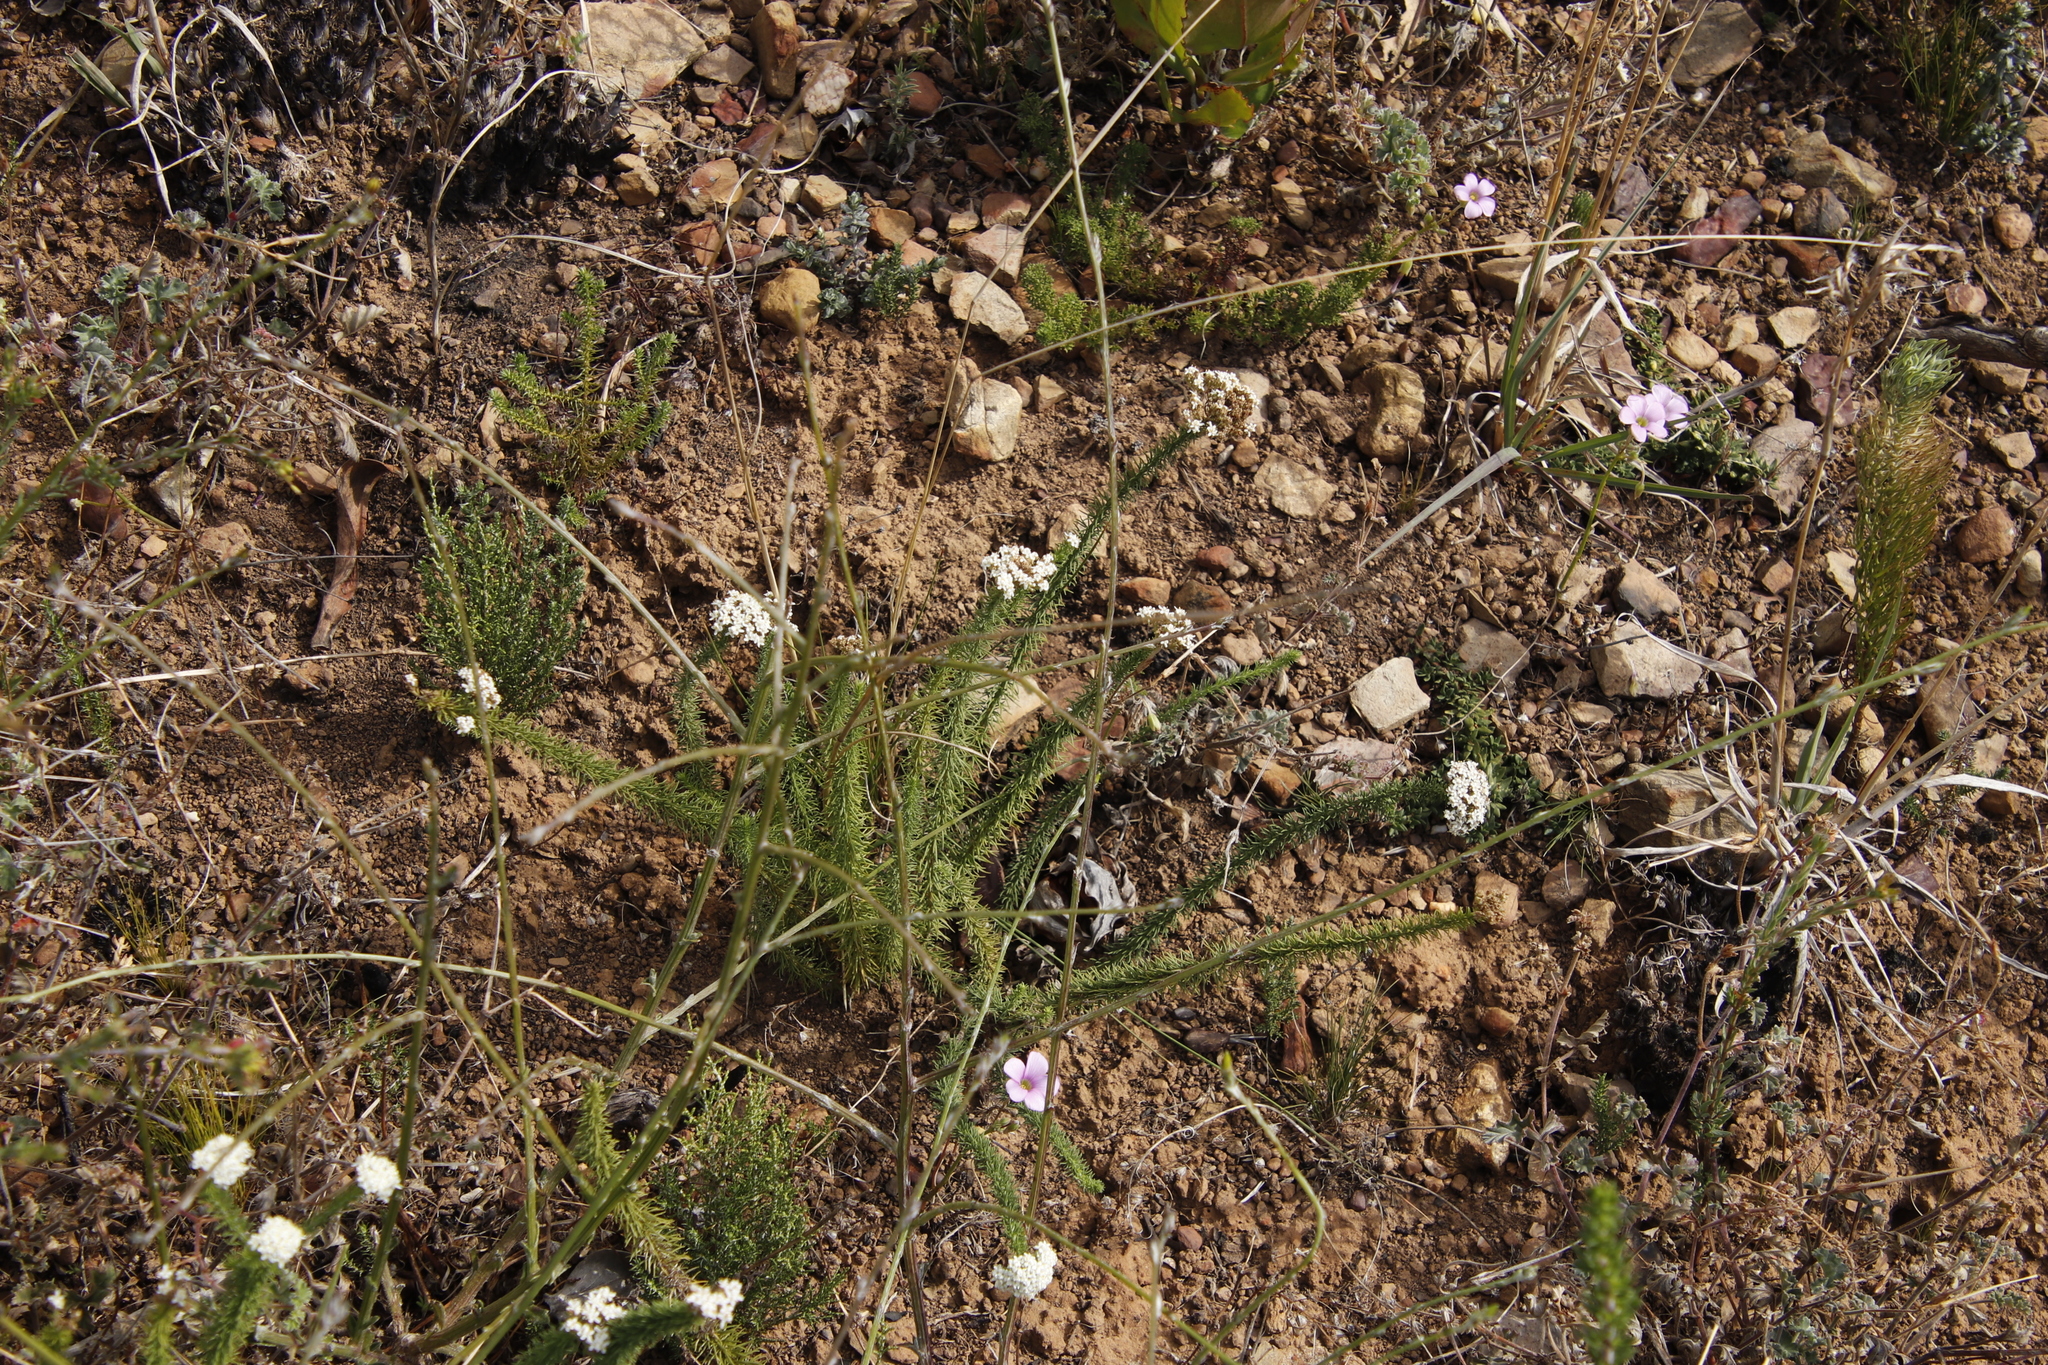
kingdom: Plantae
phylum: Tracheophyta
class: Magnoliopsida
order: Lamiales
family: Scrophulariaceae
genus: Selago
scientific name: Selago corymbosa
